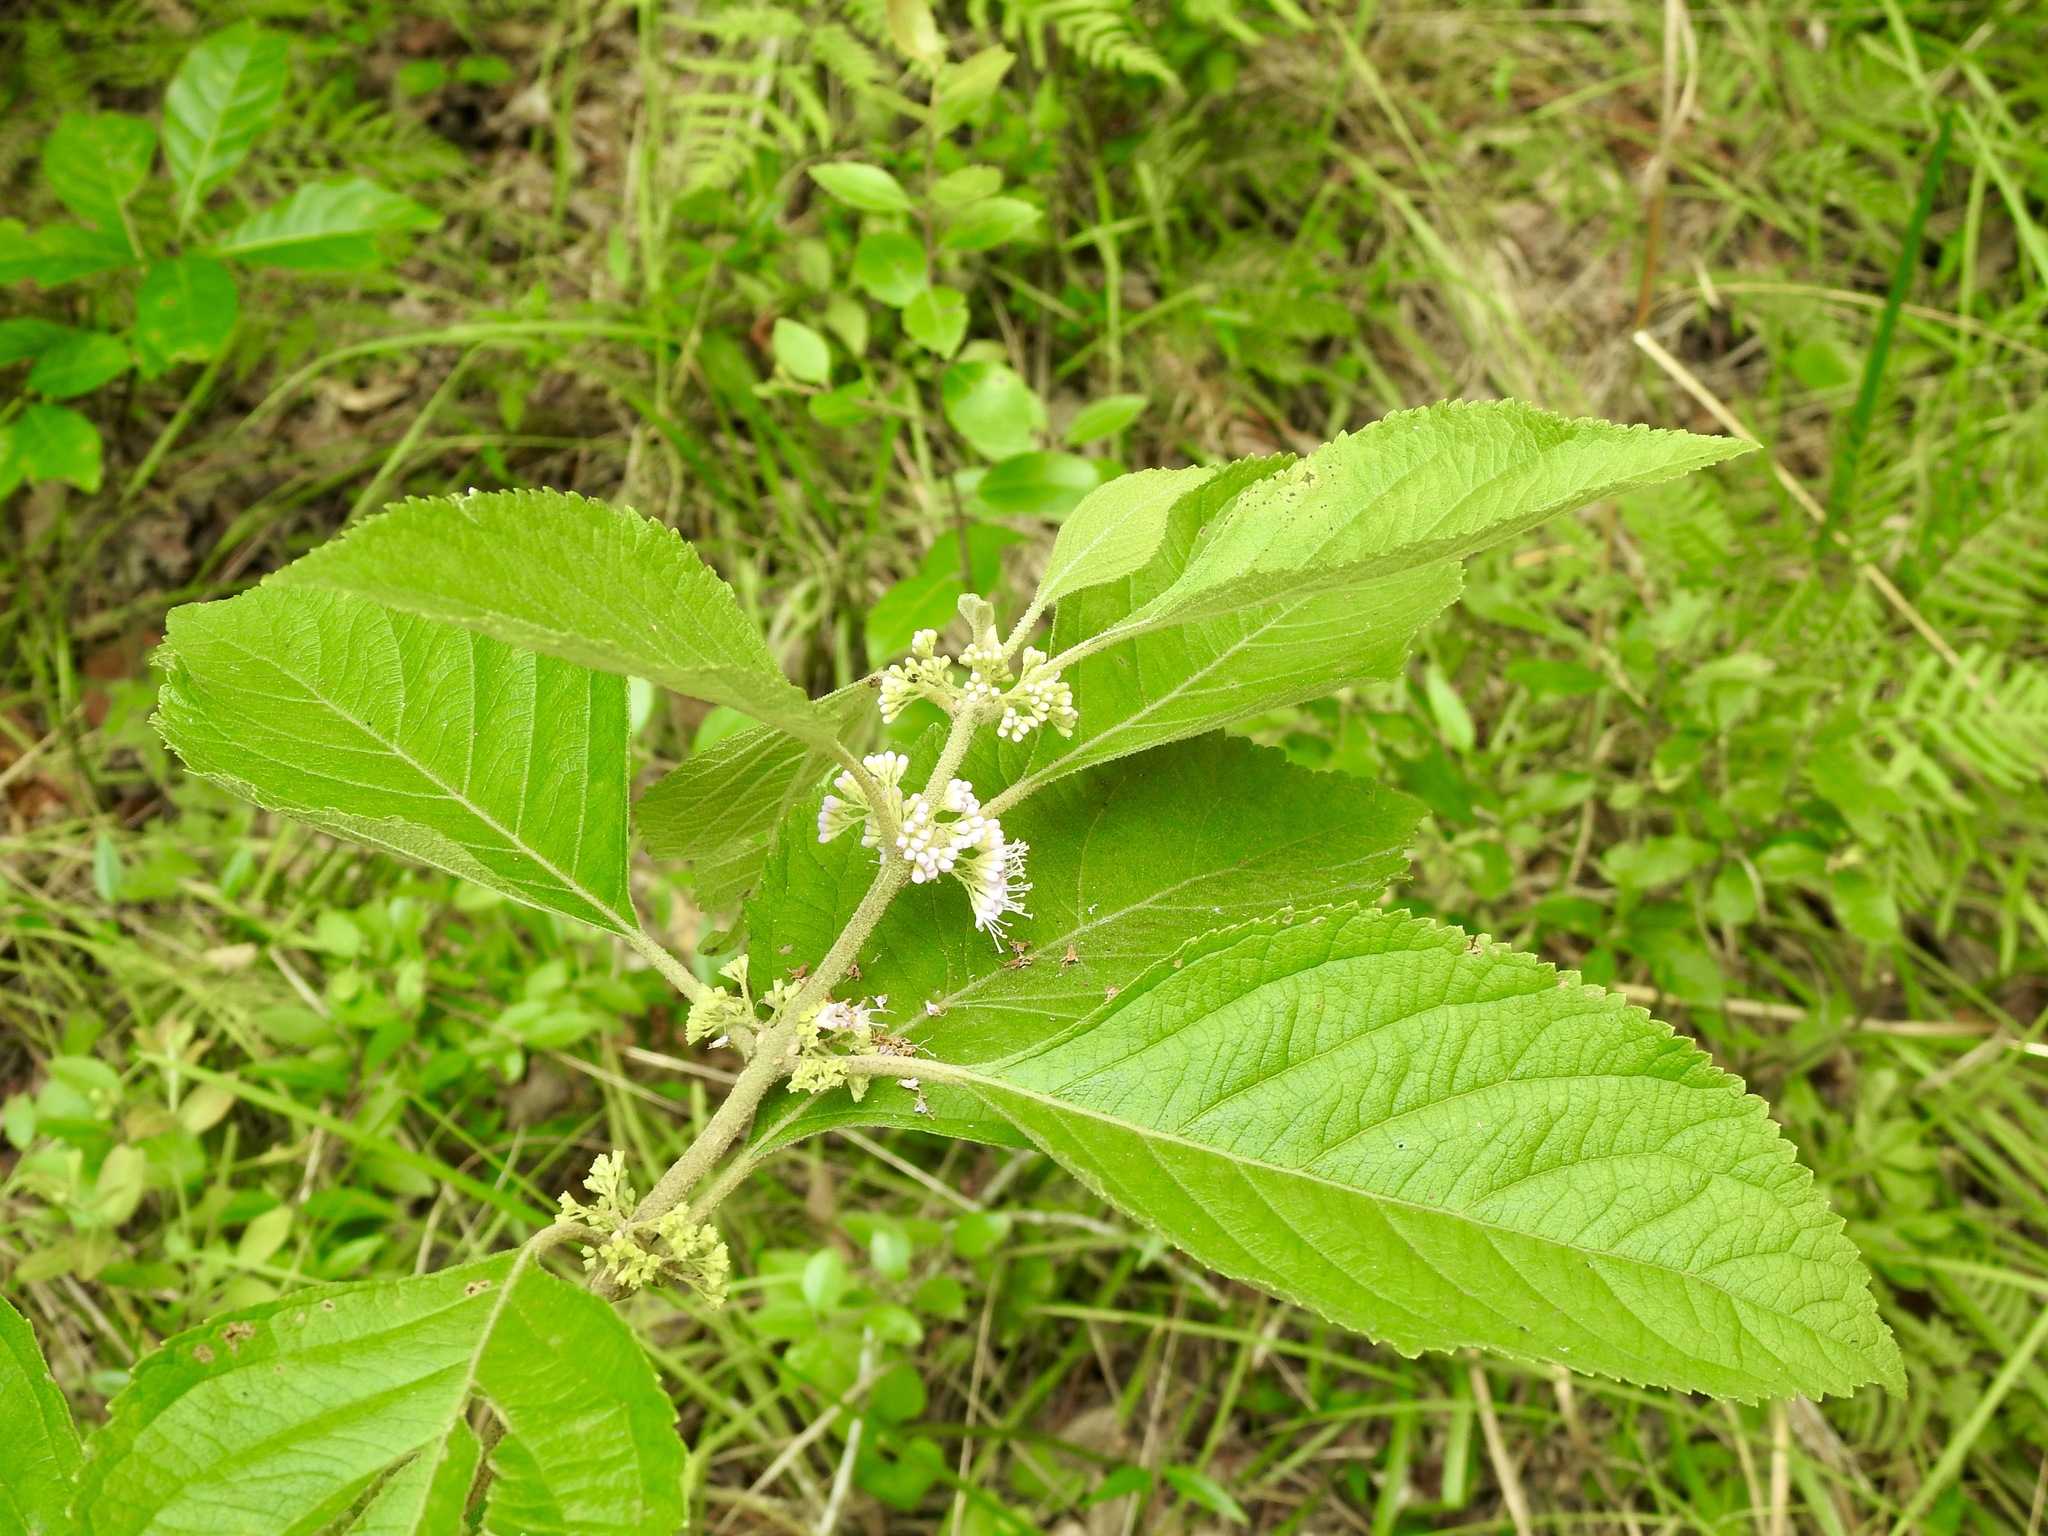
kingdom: Plantae
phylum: Tracheophyta
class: Magnoliopsida
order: Lamiales
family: Lamiaceae
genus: Callicarpa
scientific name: Callicarpa americana
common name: American beautyberry
